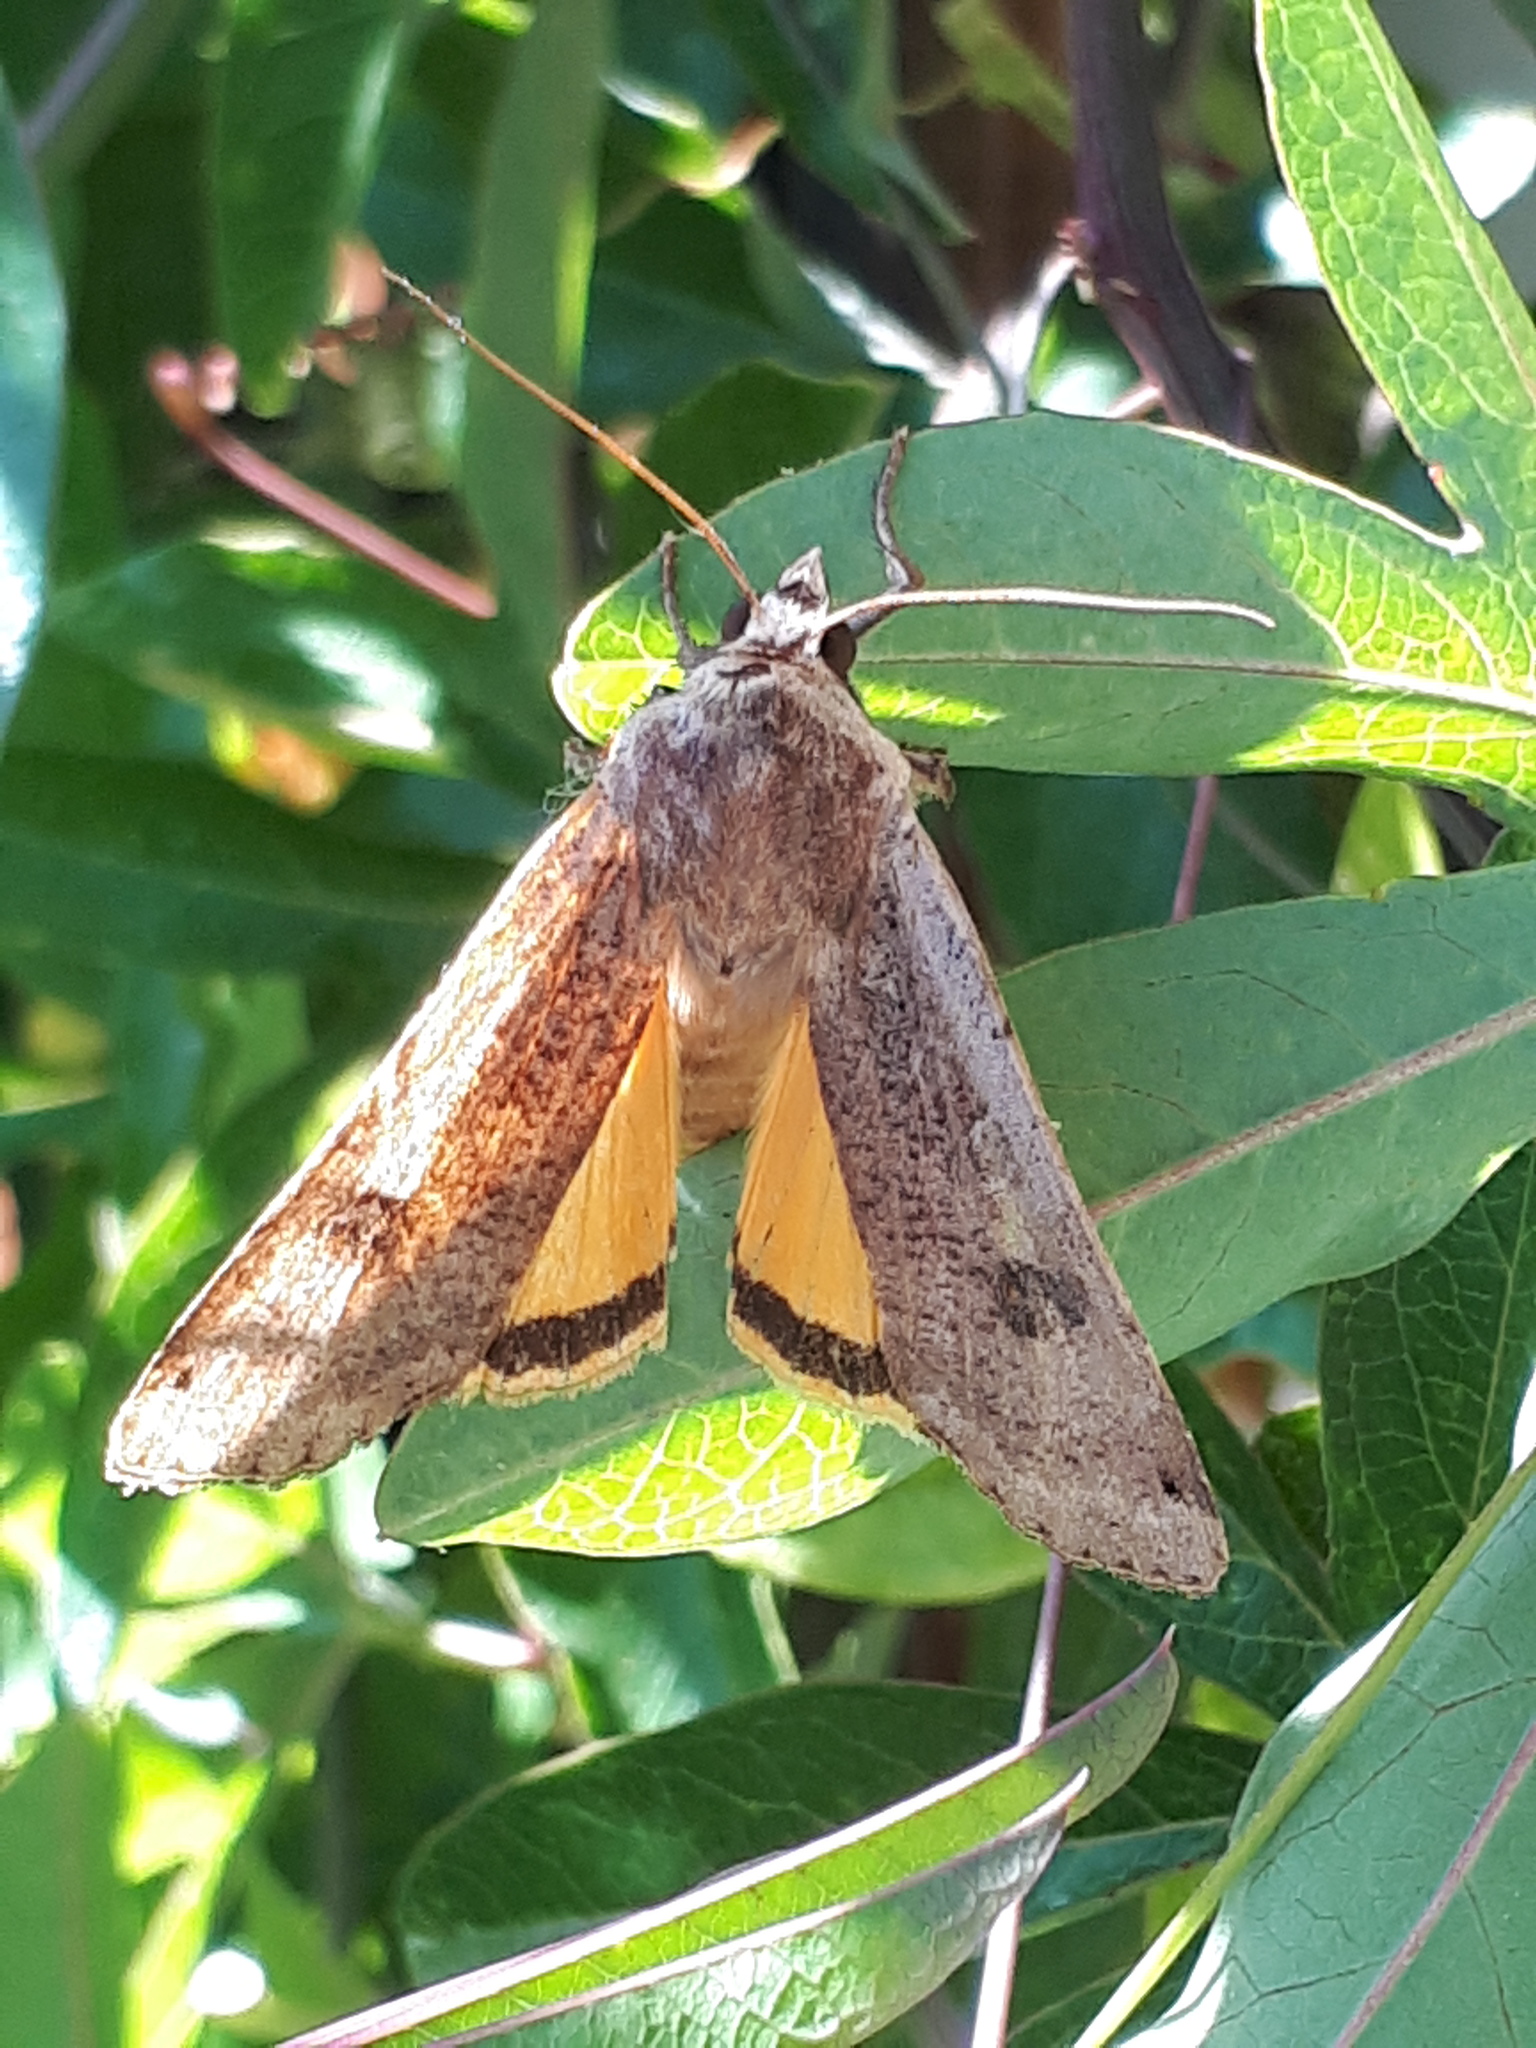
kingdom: Animalia
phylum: Arthropoda
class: Insecta
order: Lepidoptera
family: Noctuidae
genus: Noctua
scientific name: Noctua pronuba
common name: Large yellow underwing
